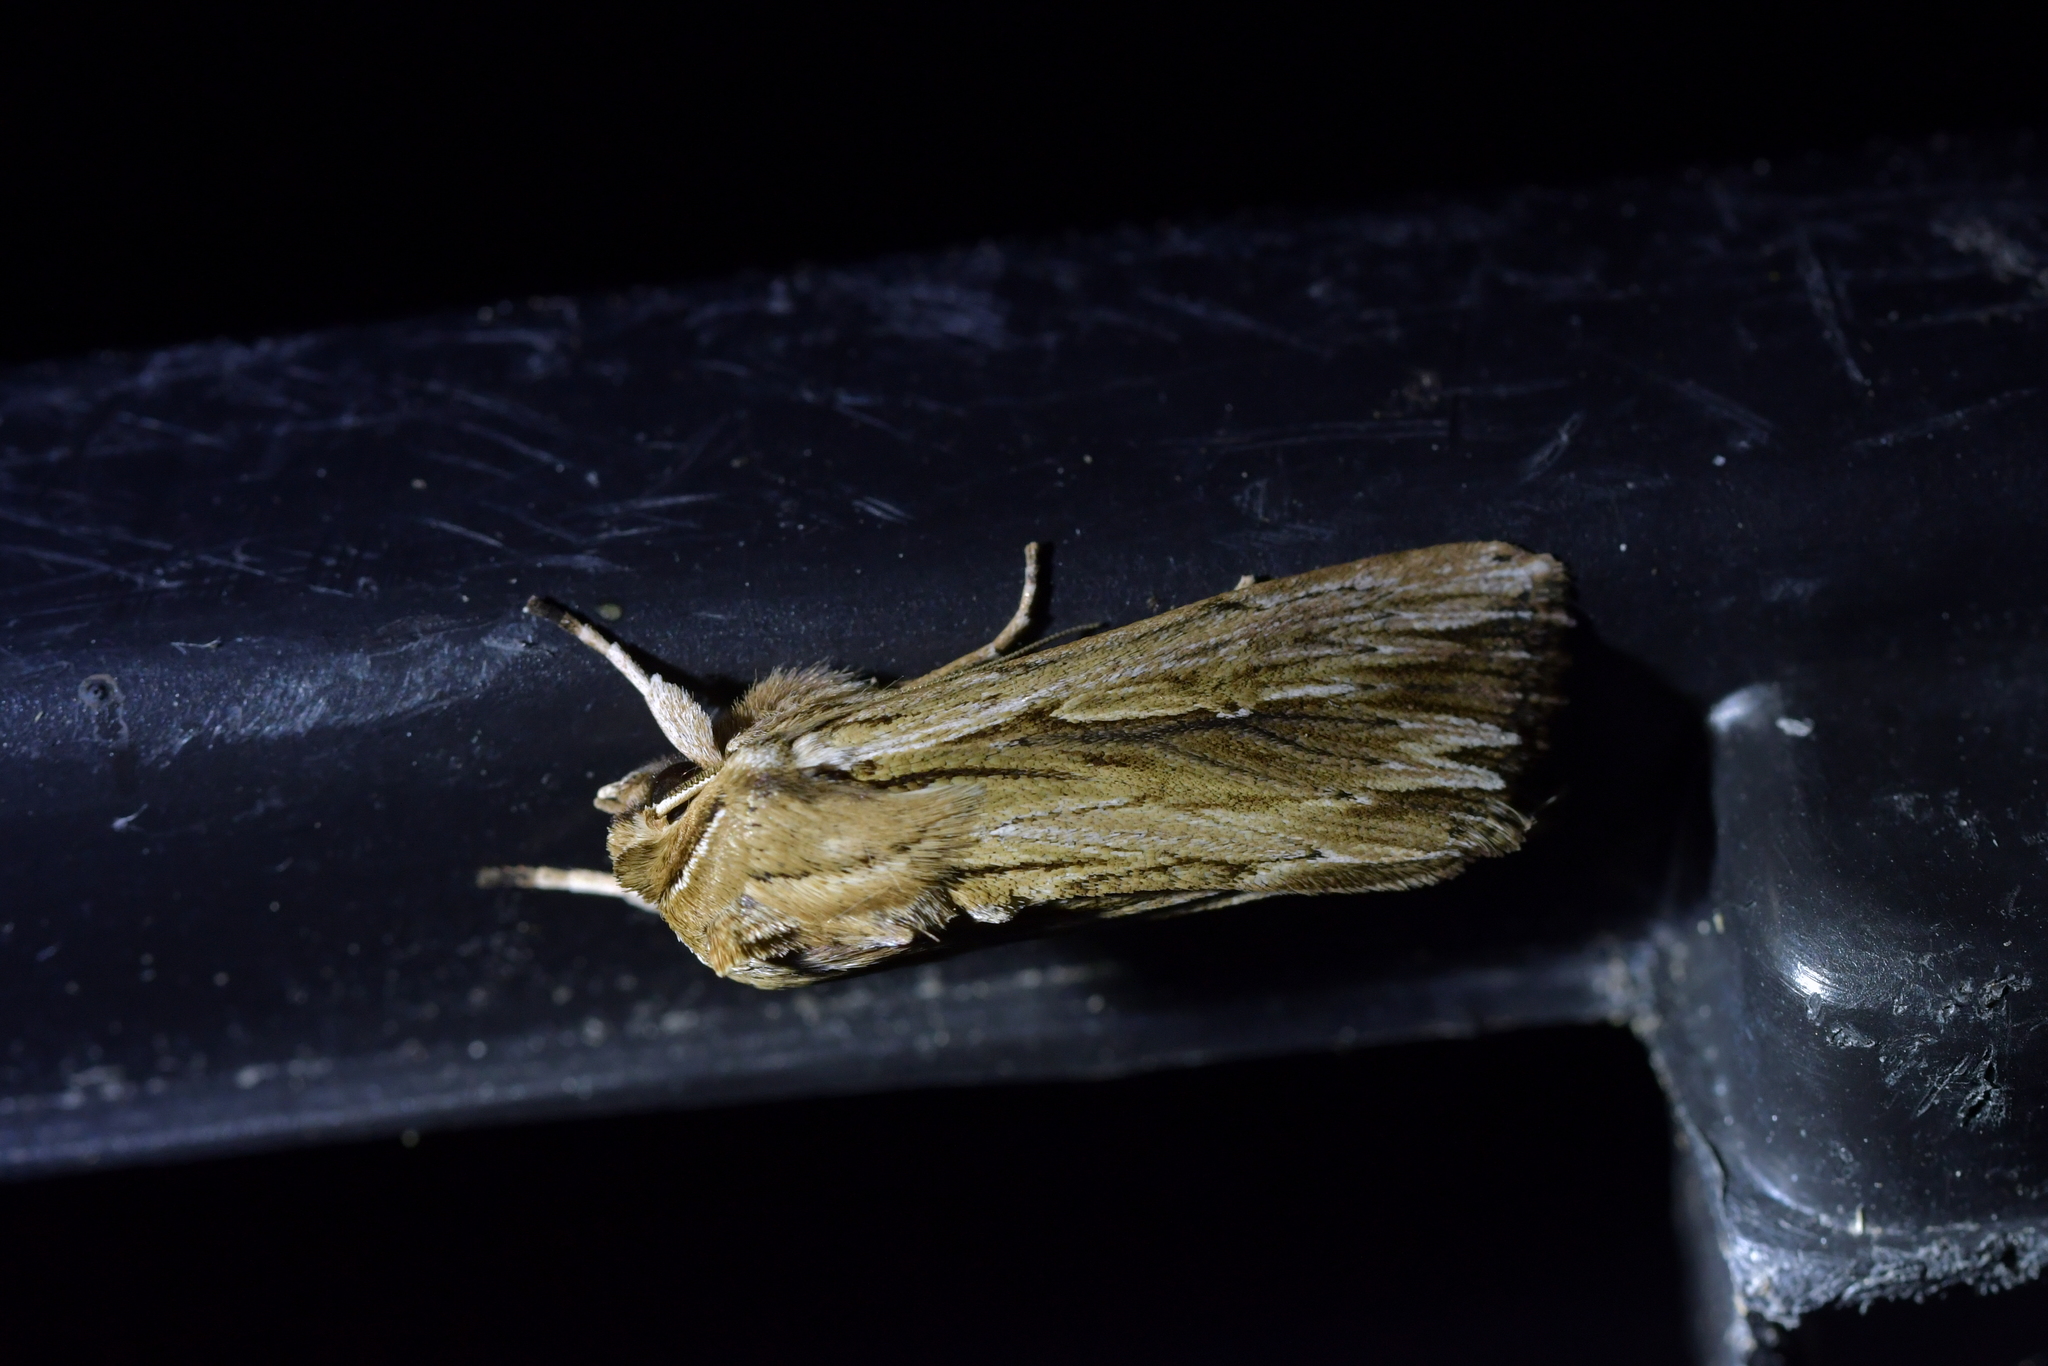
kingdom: Animalia
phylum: Arthropoda
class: Insecta
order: Lepidoptera
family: Noctuidae
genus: Persectania
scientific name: Persectania aversa
